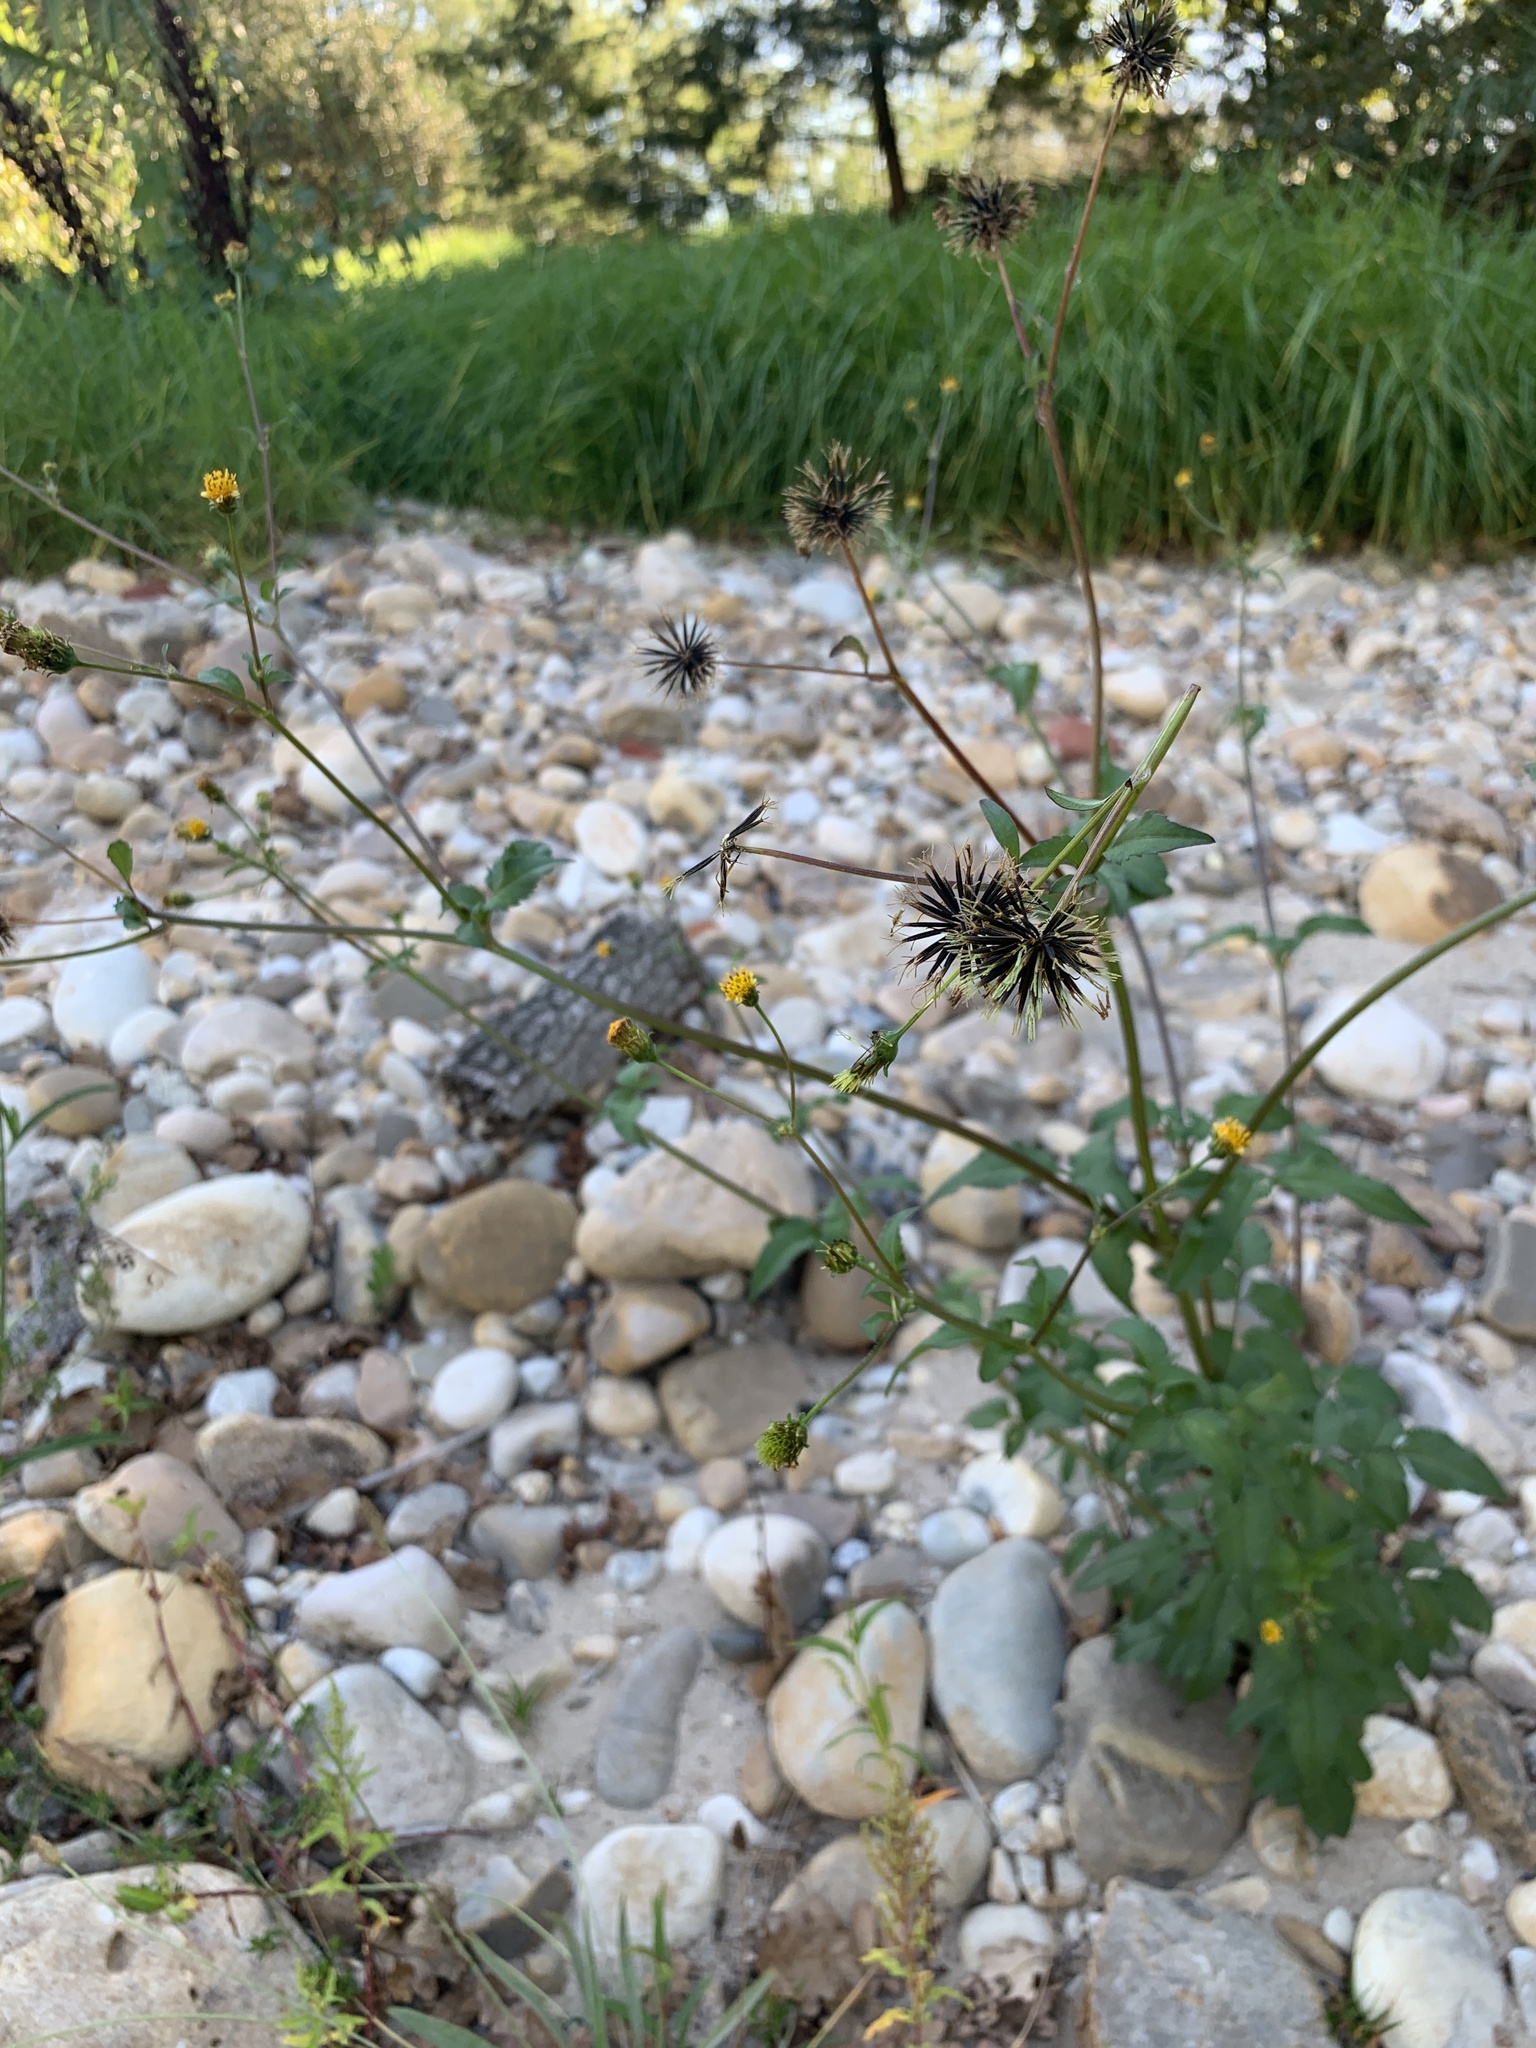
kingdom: Plantae
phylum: Tracheophyta
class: Magnoliopsida
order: Asterales
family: Asteraceae
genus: Bidens
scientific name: Bidens pilosa
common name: Black-jack
